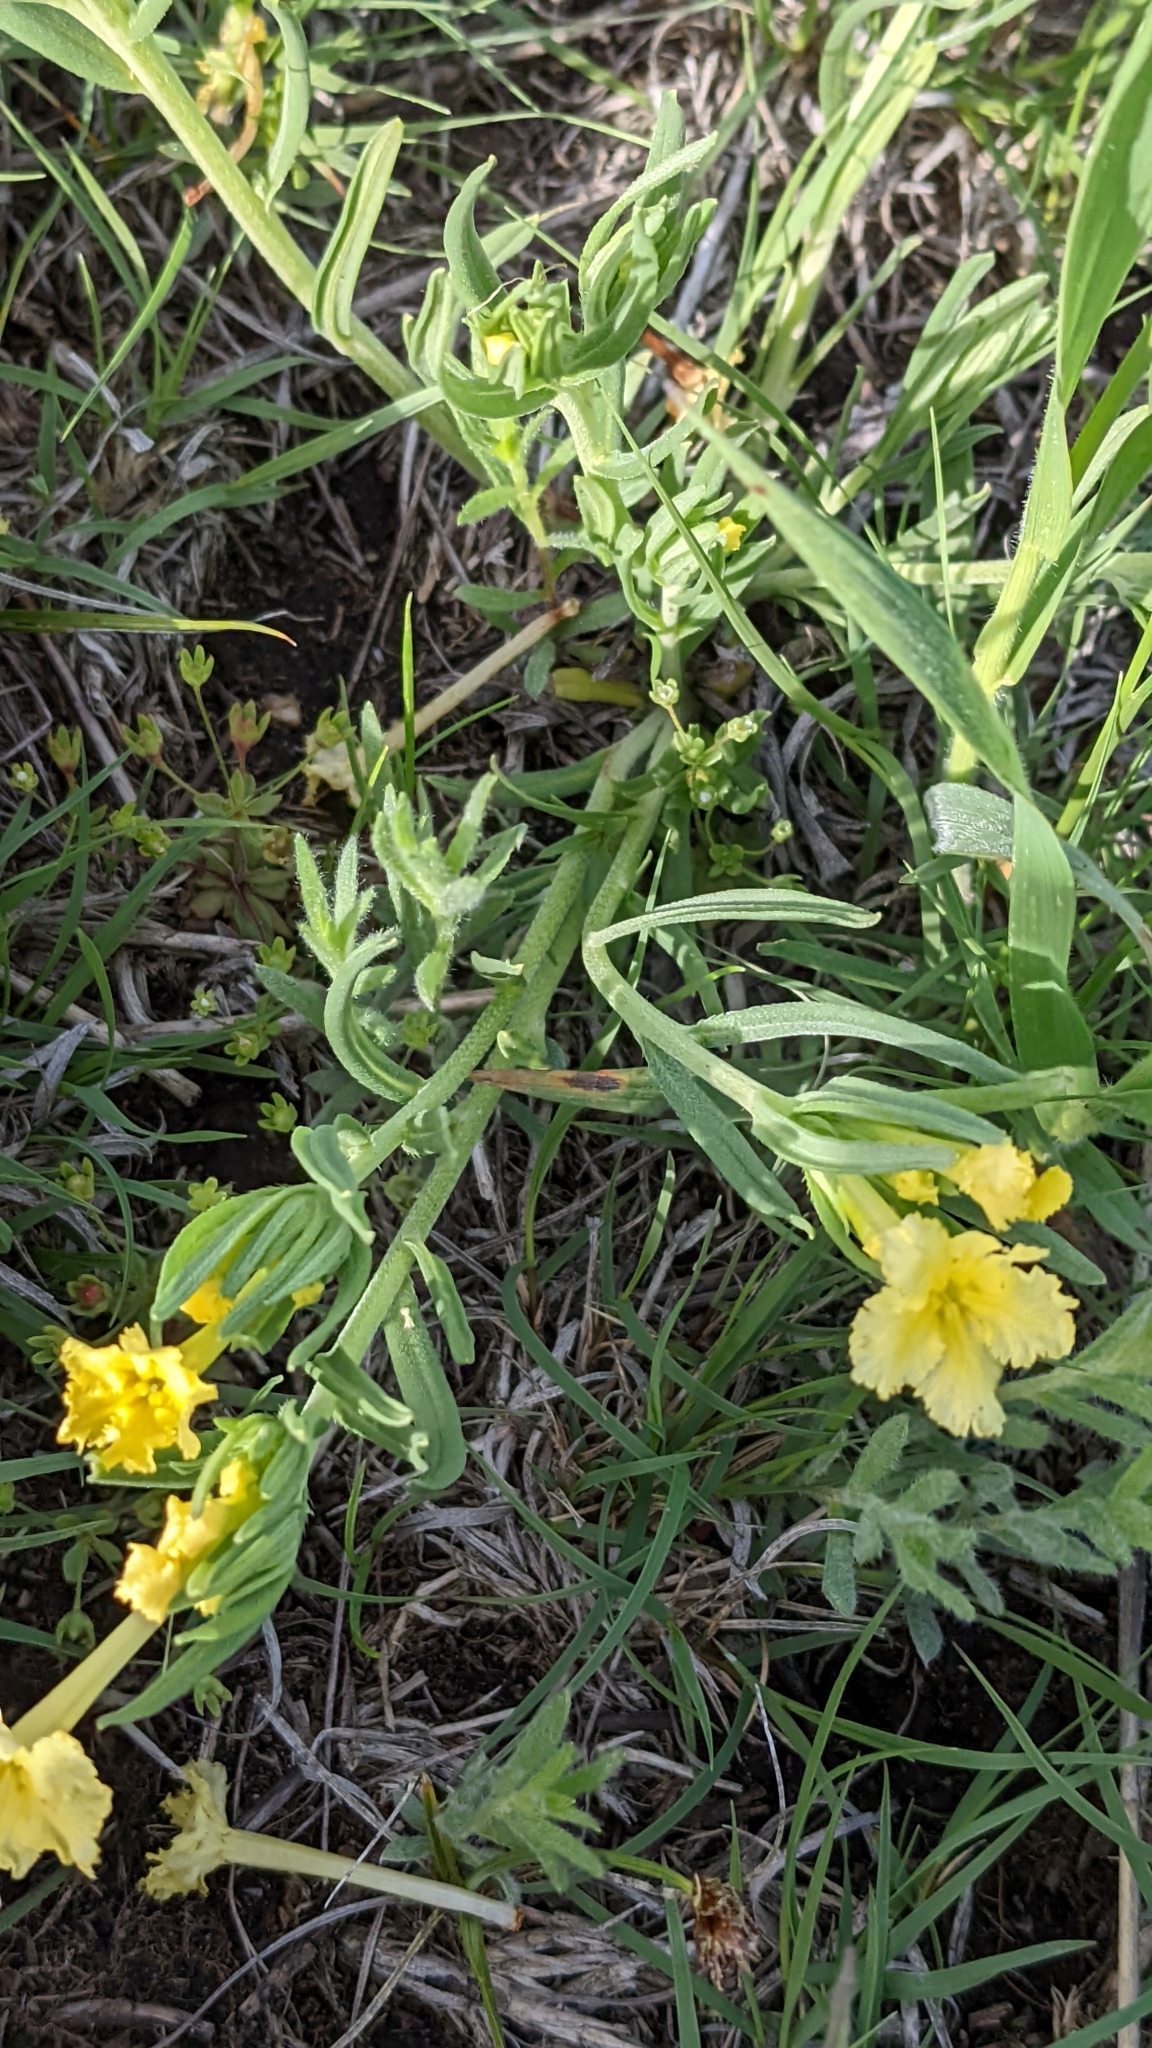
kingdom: Plantae
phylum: Tracheophyta
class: Magnoliopsida
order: Boraginales
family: Boraginaceae
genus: Lithospermum
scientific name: Lithospermum incisum
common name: Fringed gromwell
